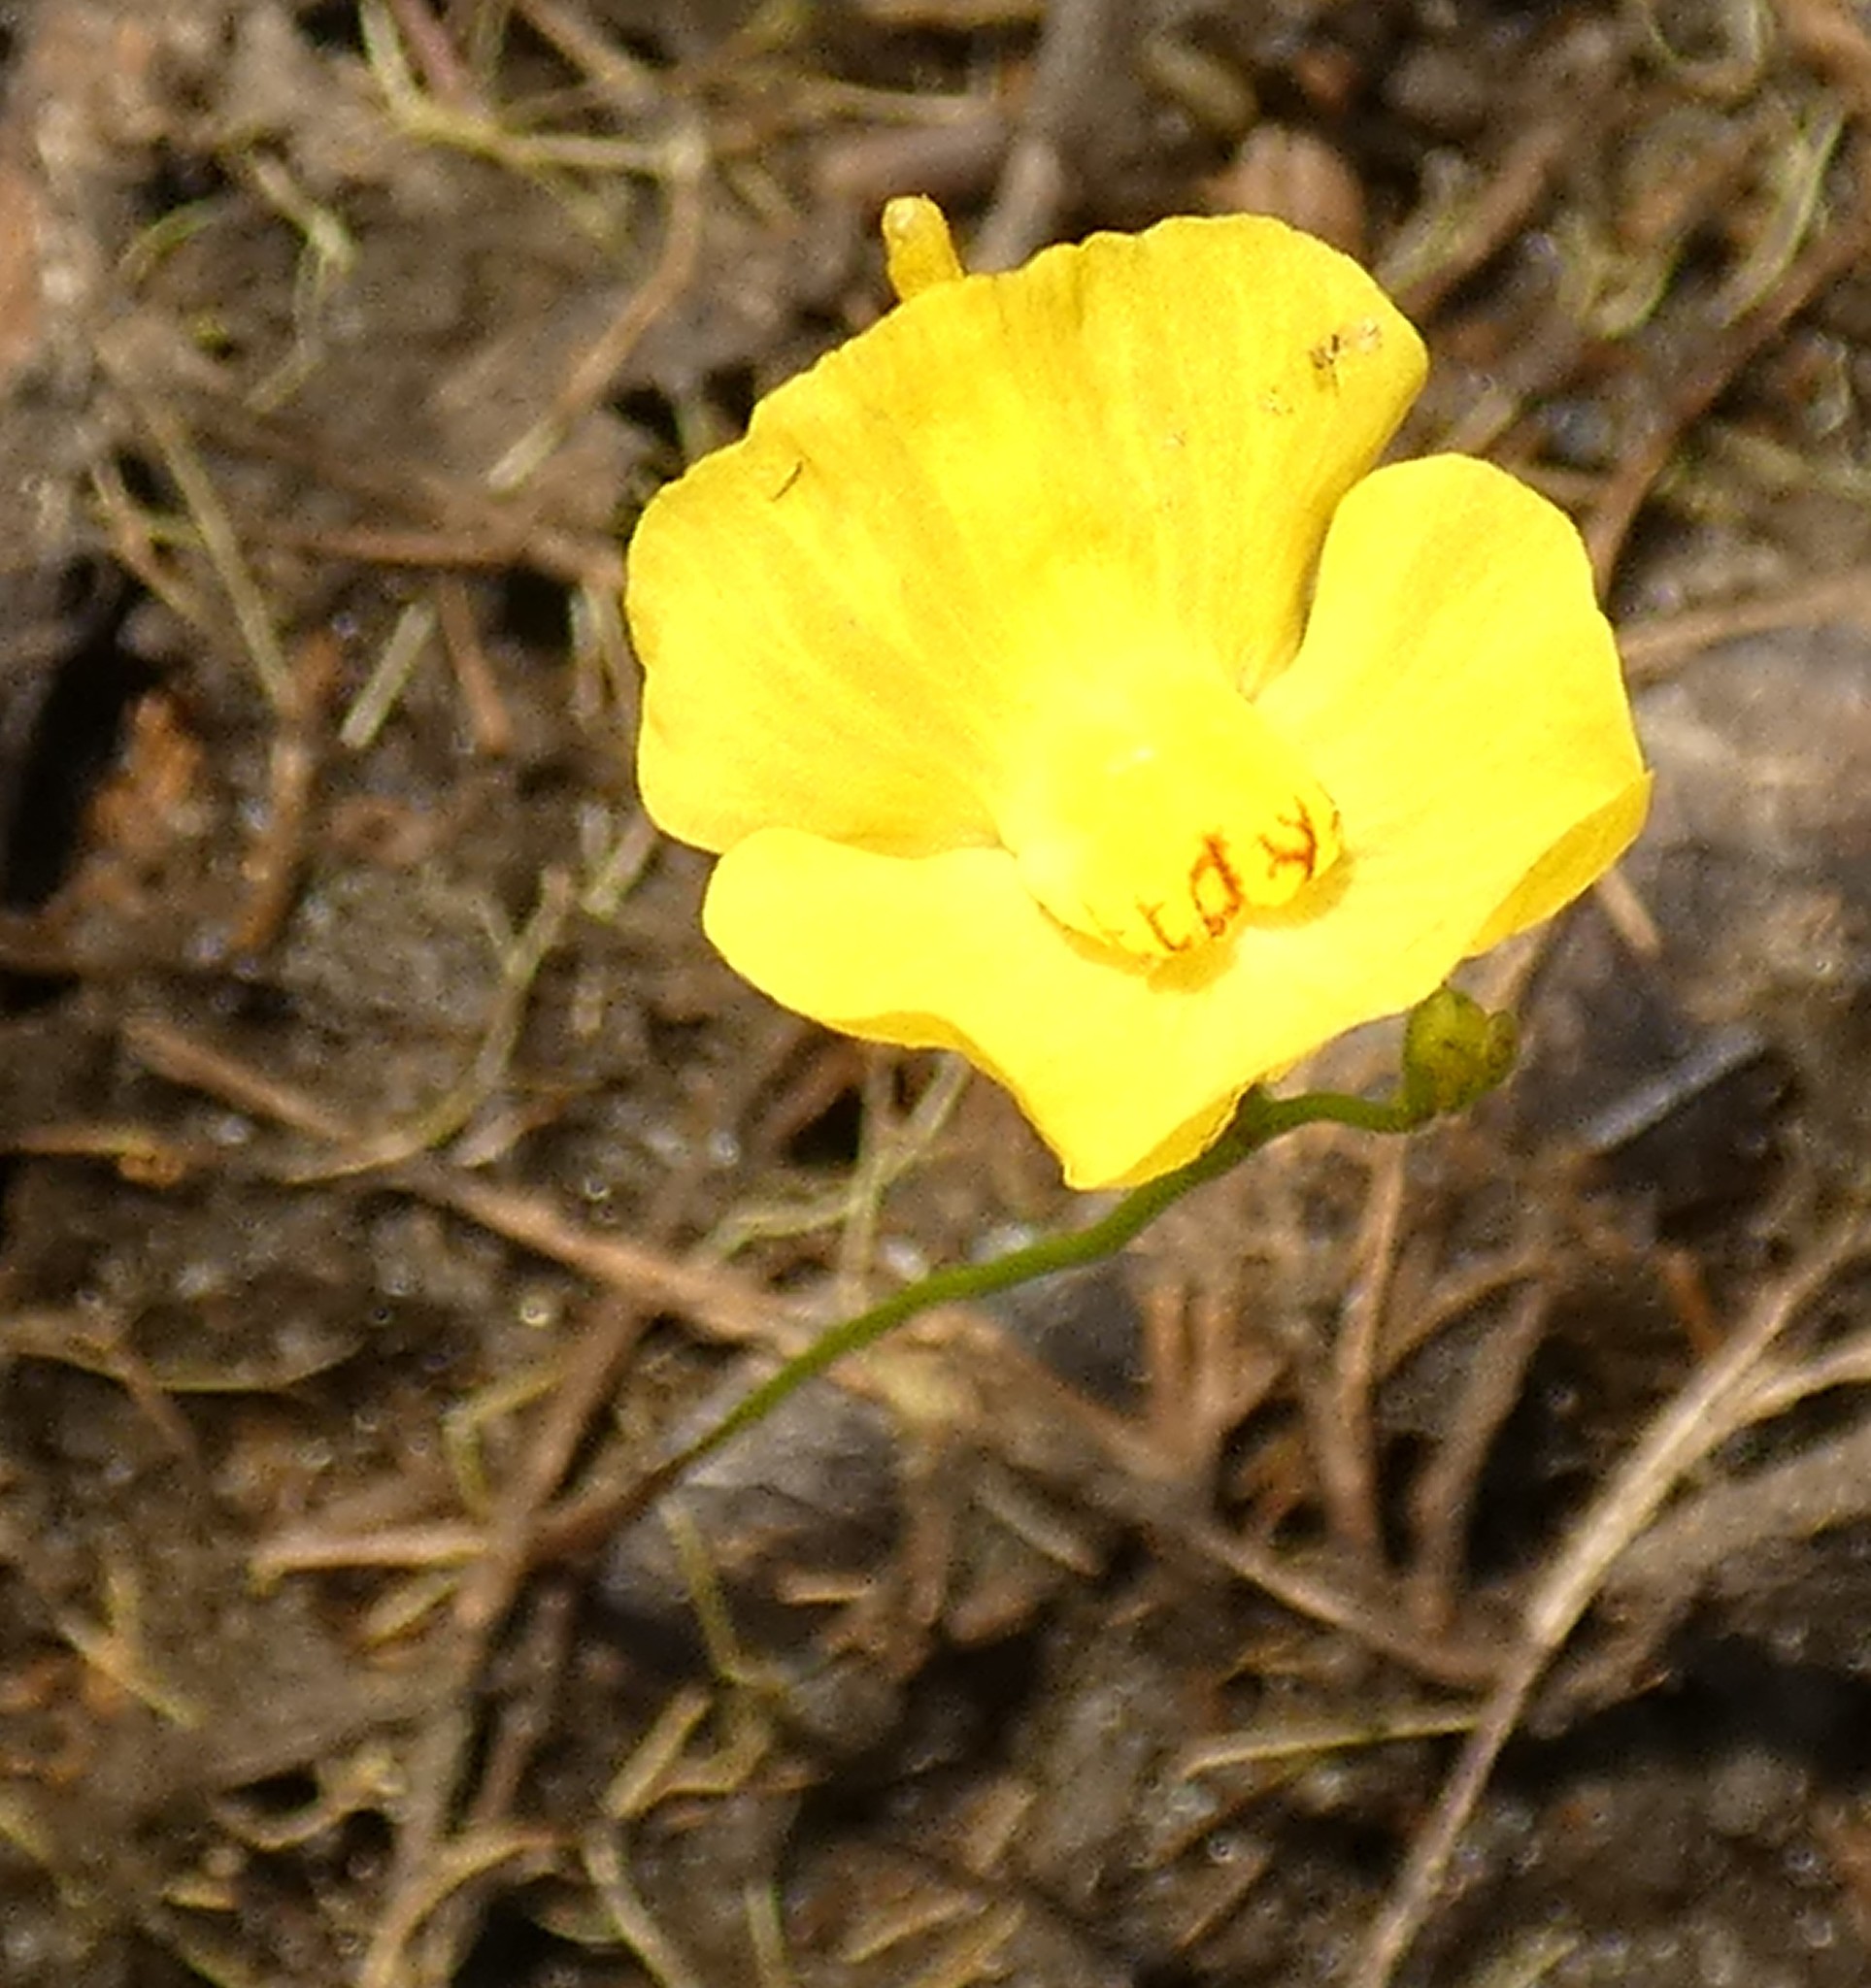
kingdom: Plantae
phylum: Tracheophyta
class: Magnoliopsida
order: Lamiales
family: Lentibulariaceae
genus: Utricularia
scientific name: Utricularia gibba
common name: Humped bladderwort
